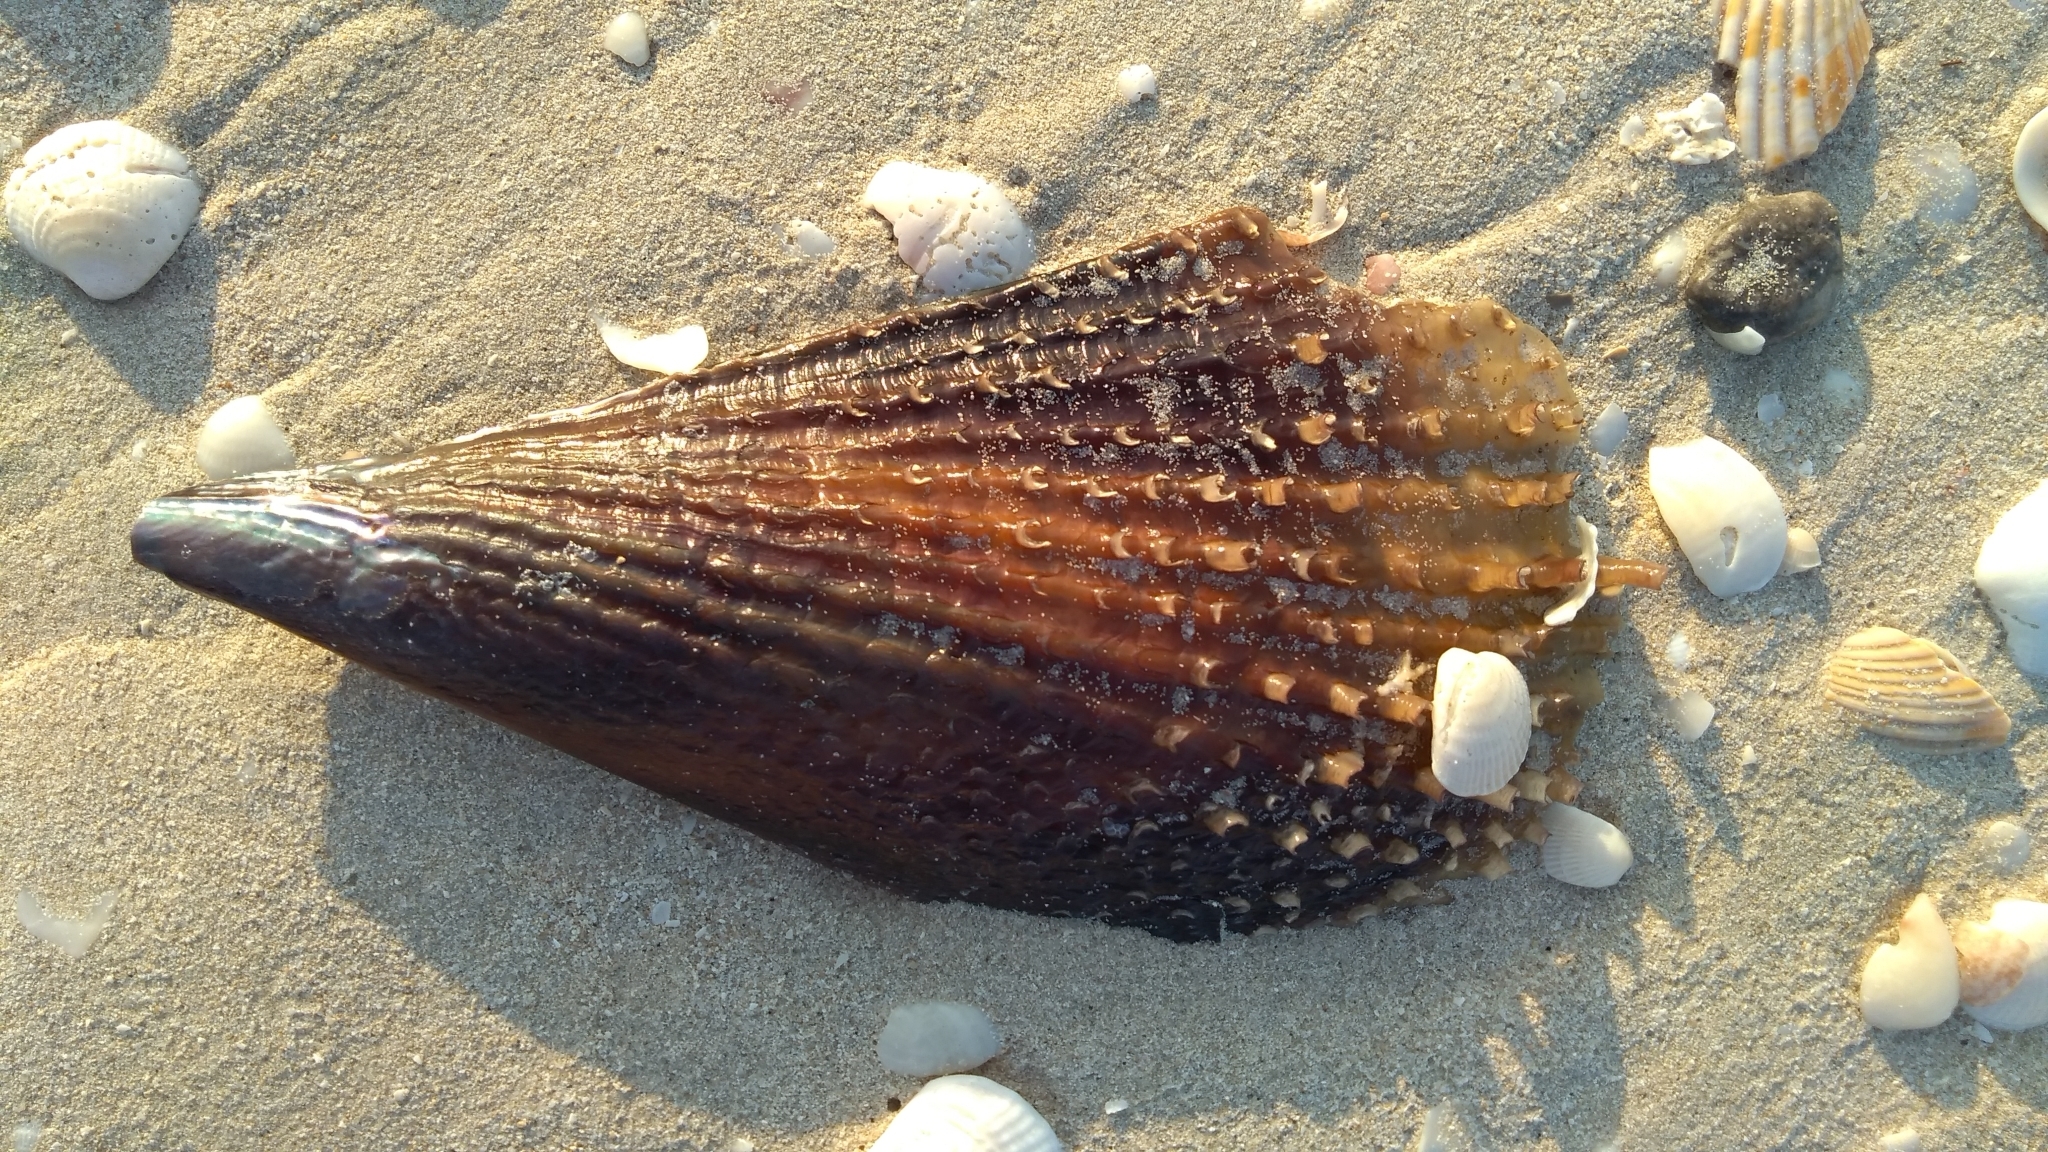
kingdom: Animalia
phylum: Mollusca
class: Bivalvia
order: Ostreida
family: Pinnidae
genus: Atrina
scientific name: Atrina rigida
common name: Stiff penshell
